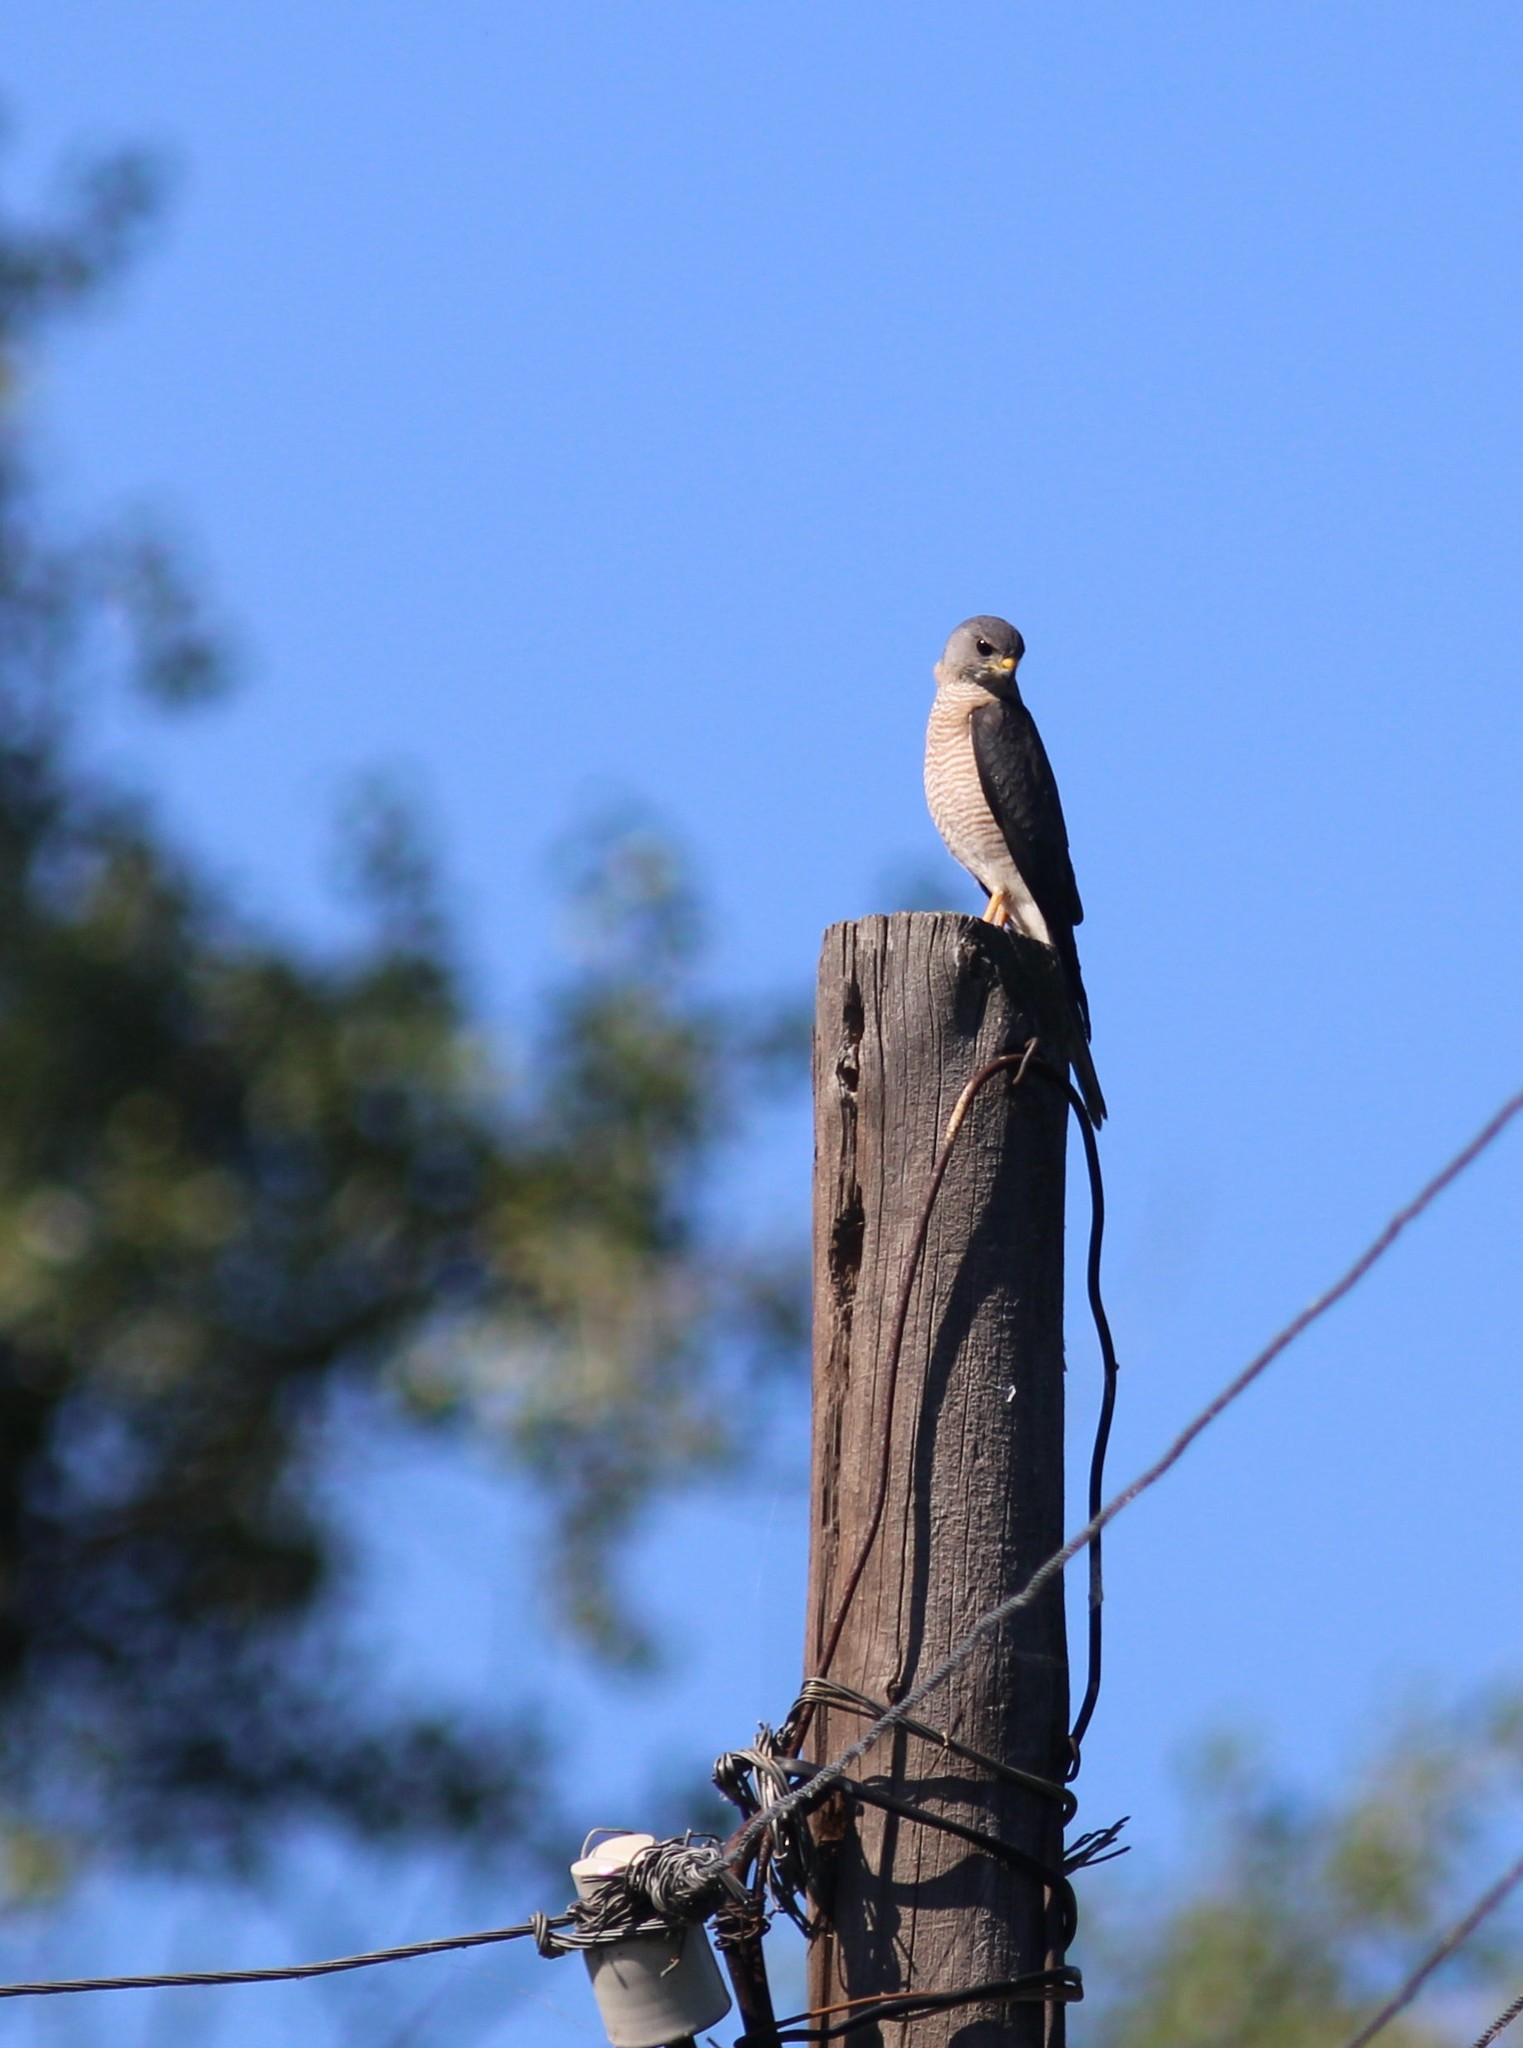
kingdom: Animalia
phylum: Chordata
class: Aves
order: Accipitriformes
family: Accipitridae
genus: Accipiter
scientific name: Accipiter brevipes
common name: Levant sparrowhawk
